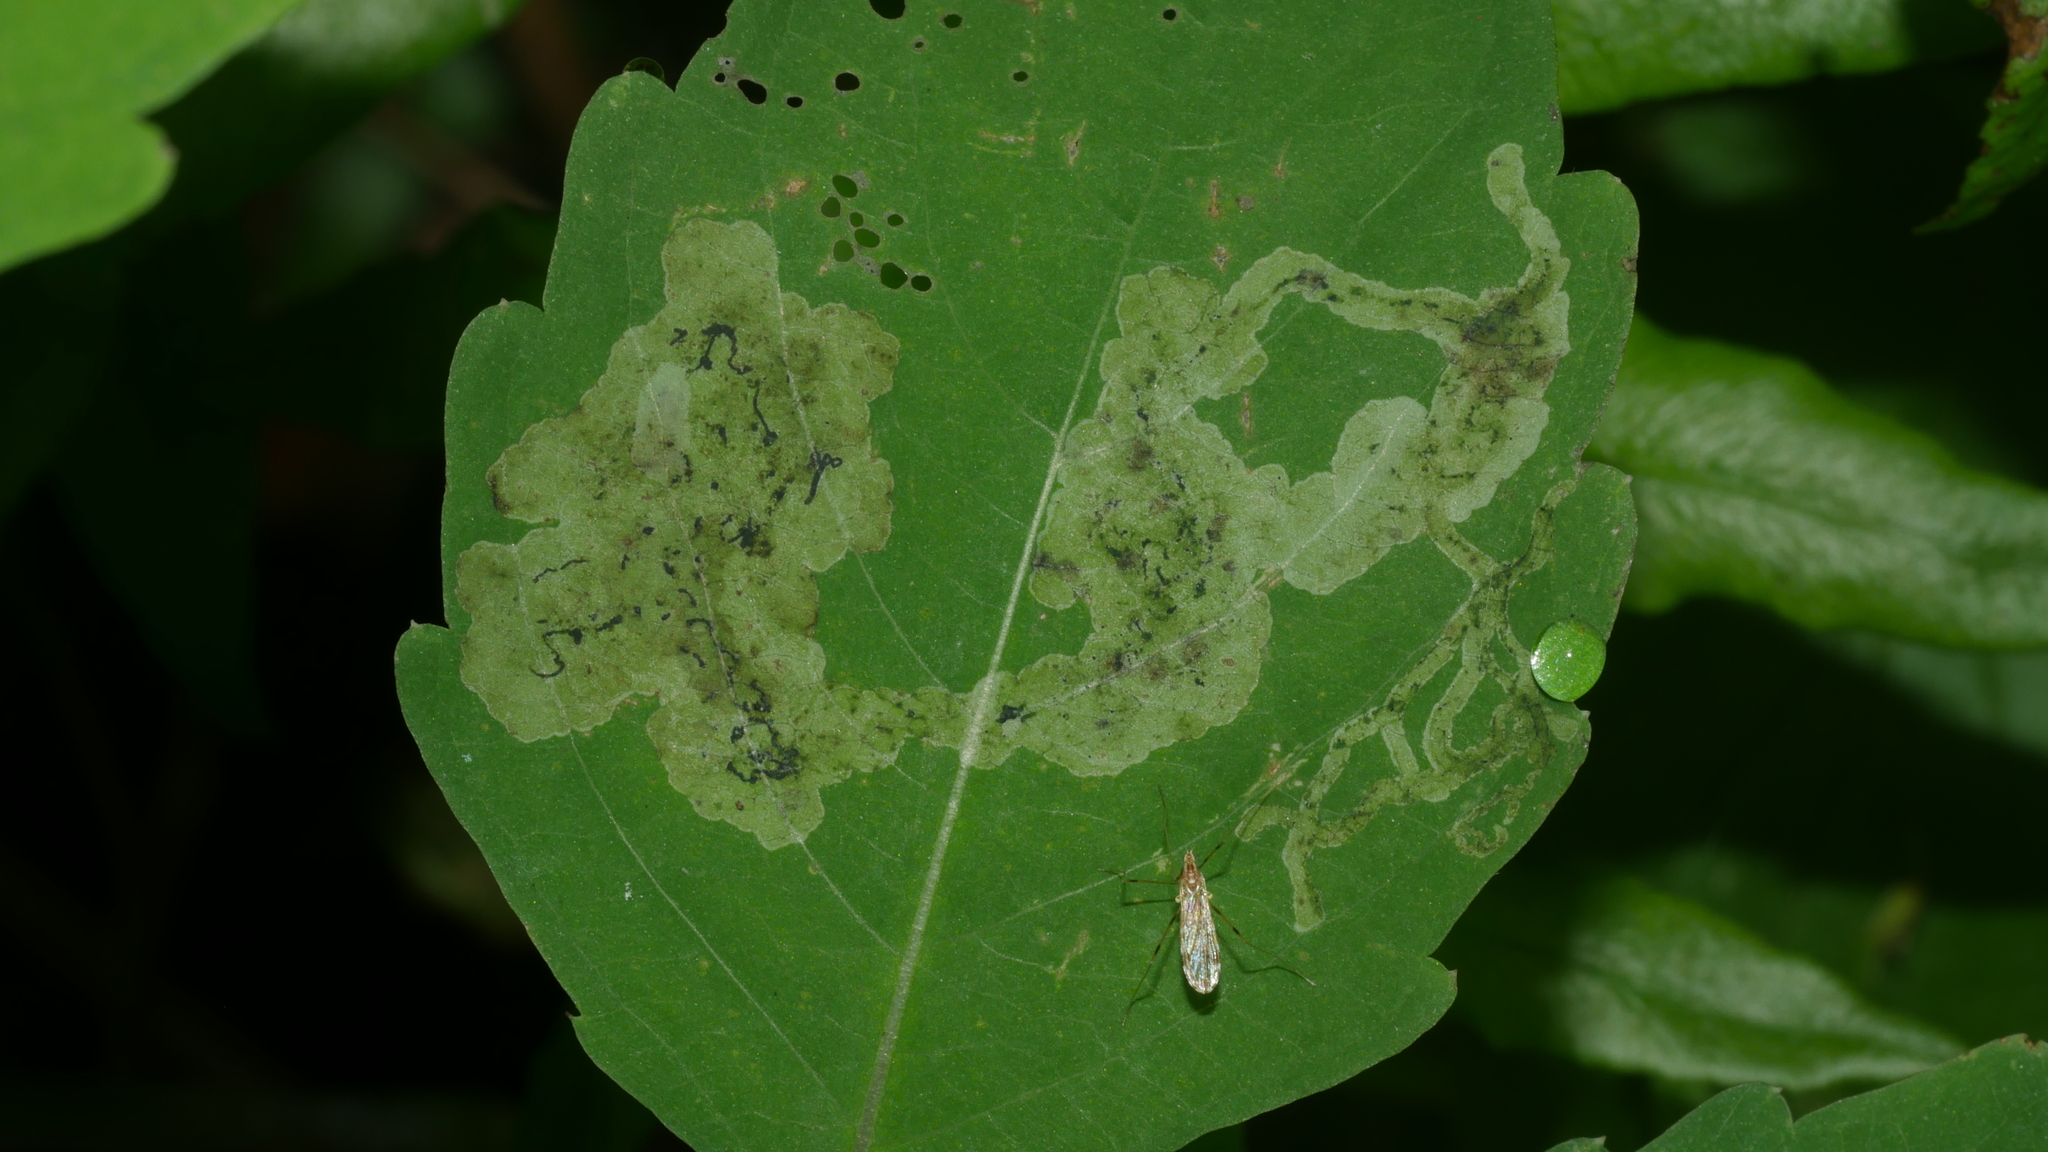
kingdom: Animalia
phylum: Arthropoda
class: Insecta
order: Diptera
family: Agromyzidae
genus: Phytoliriomyza
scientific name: Phytoliriomyza melampyga
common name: Jewelweed leaf-miner fly
